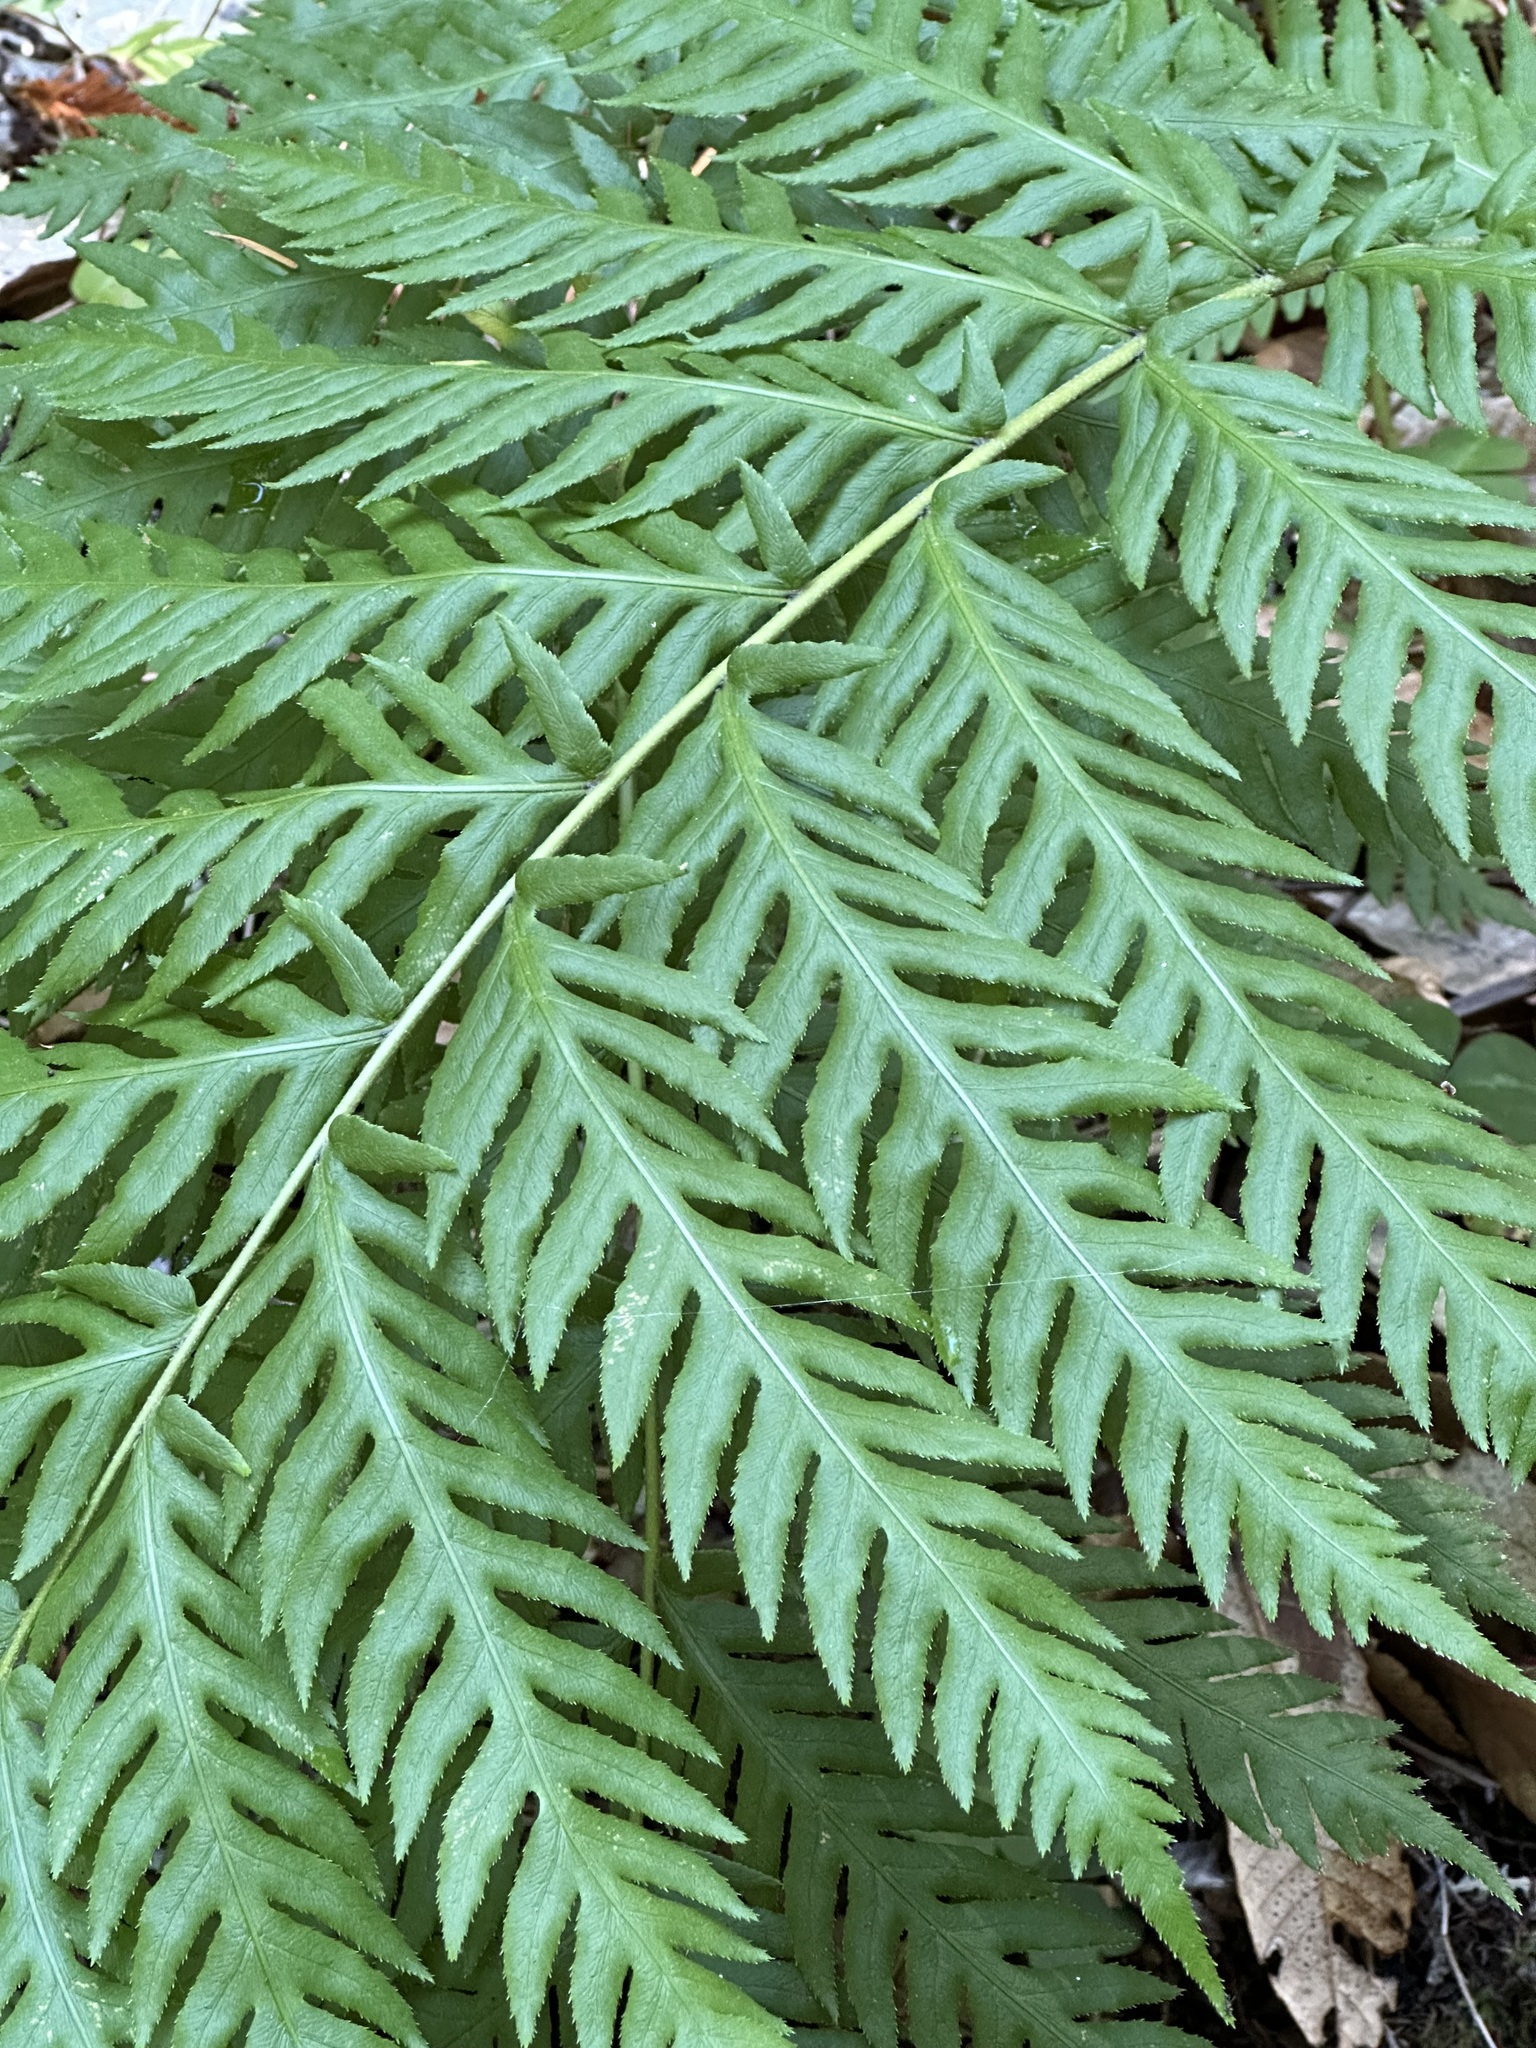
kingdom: Plantae
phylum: Tracheophyta
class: Polypodiopsida
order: Polypodiales
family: Blechnaceae
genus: Woodwardia
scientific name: Woodwardia fimbriata
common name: Giant chain fern
